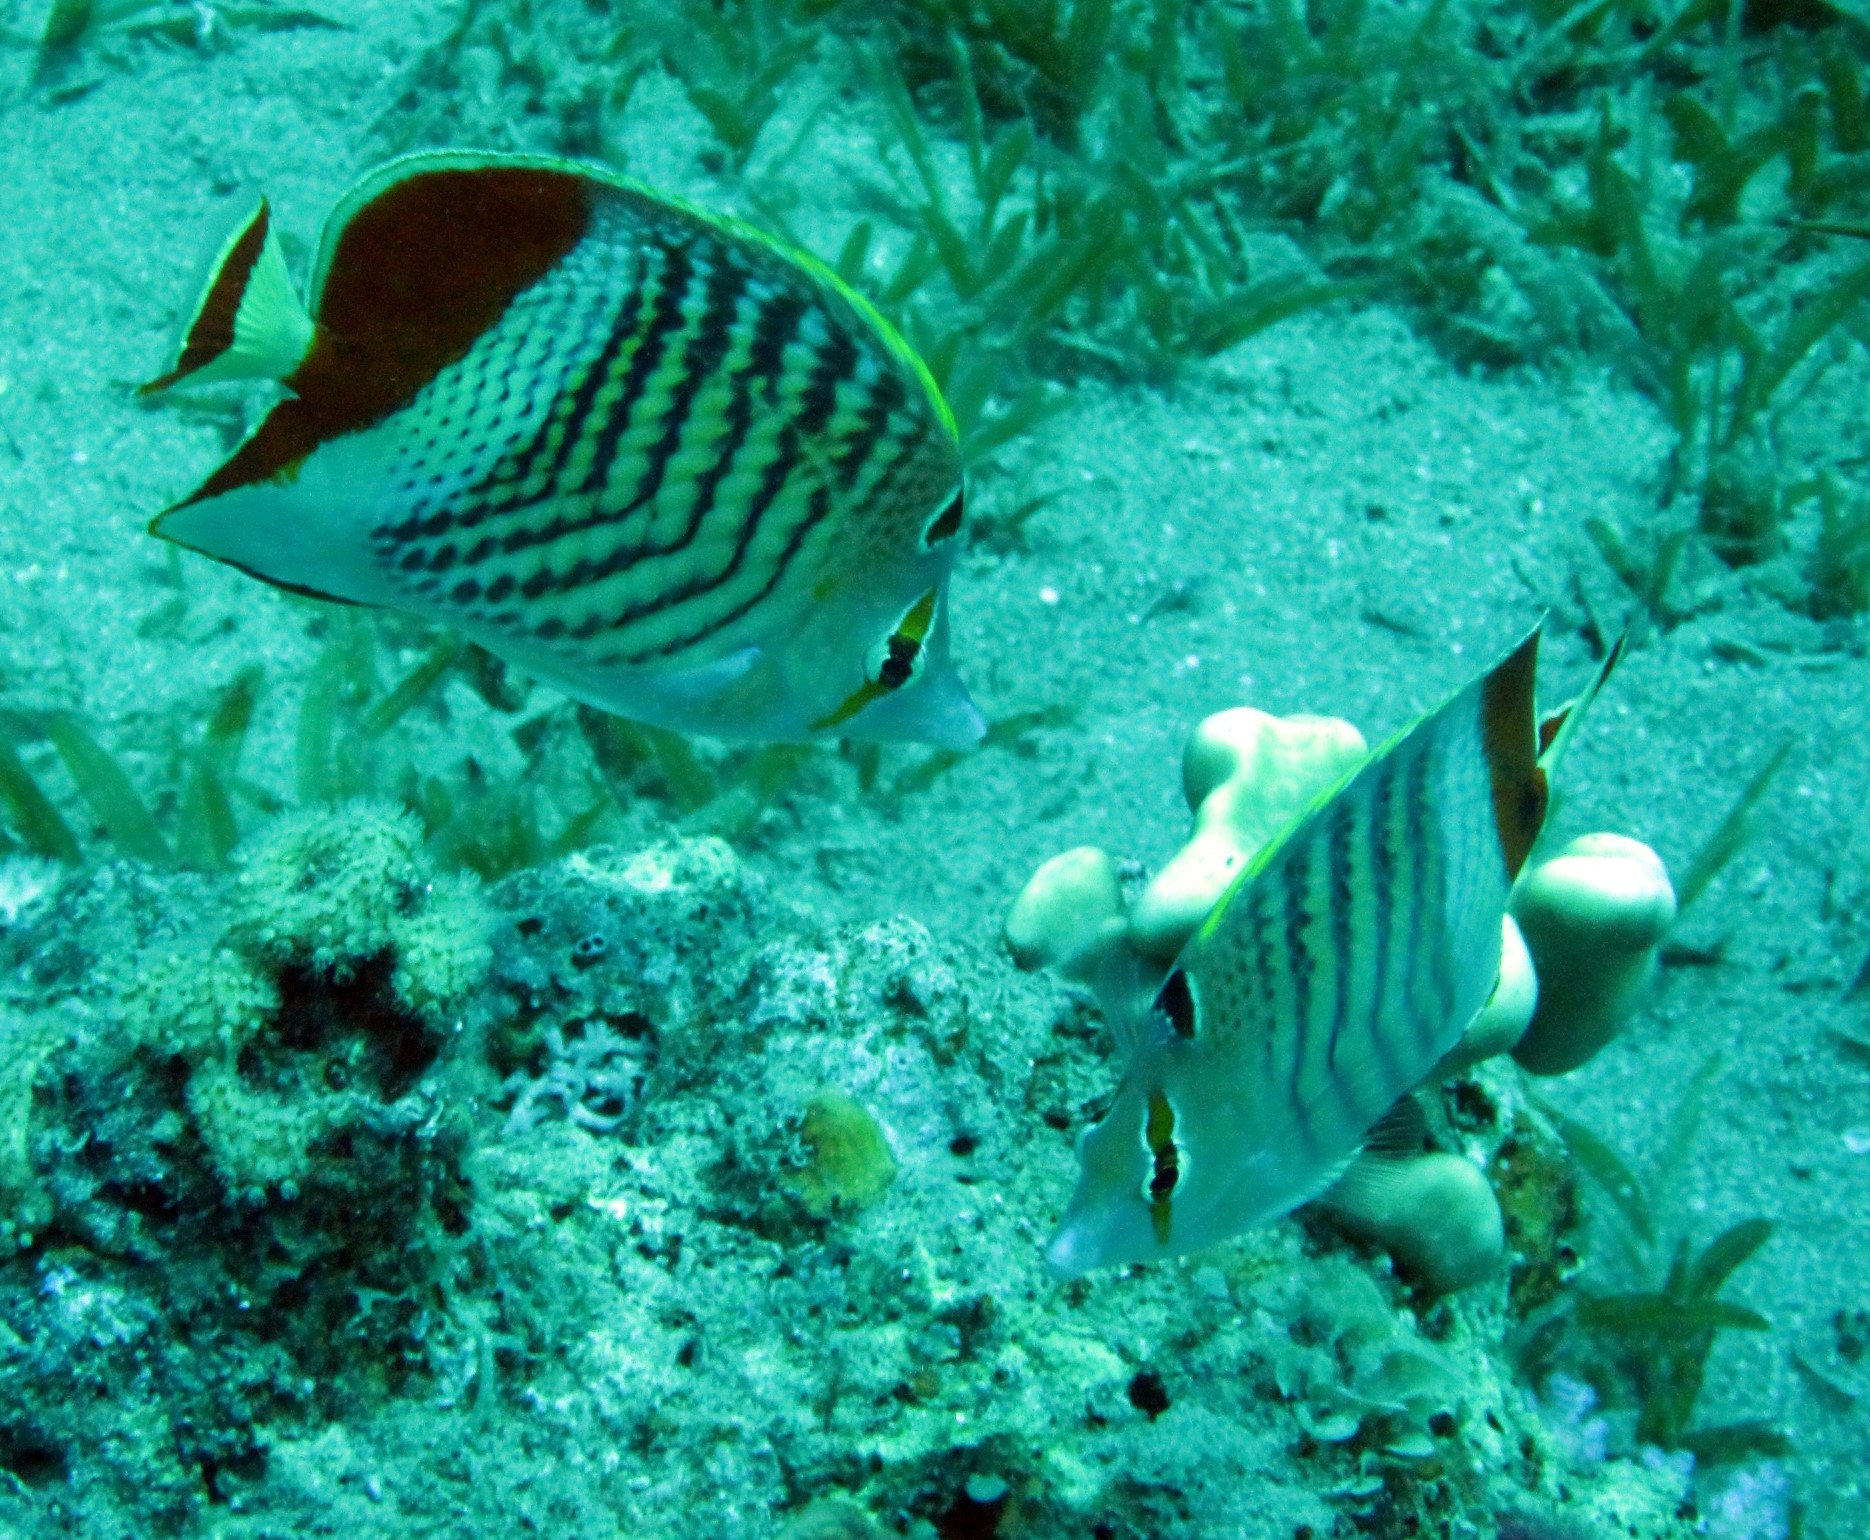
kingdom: Animalia
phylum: Chordata
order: Perciformes
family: Chaetodontidae
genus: Chaetodon
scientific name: Chaetodon paucifasciatus
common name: Crown butterflyfish
